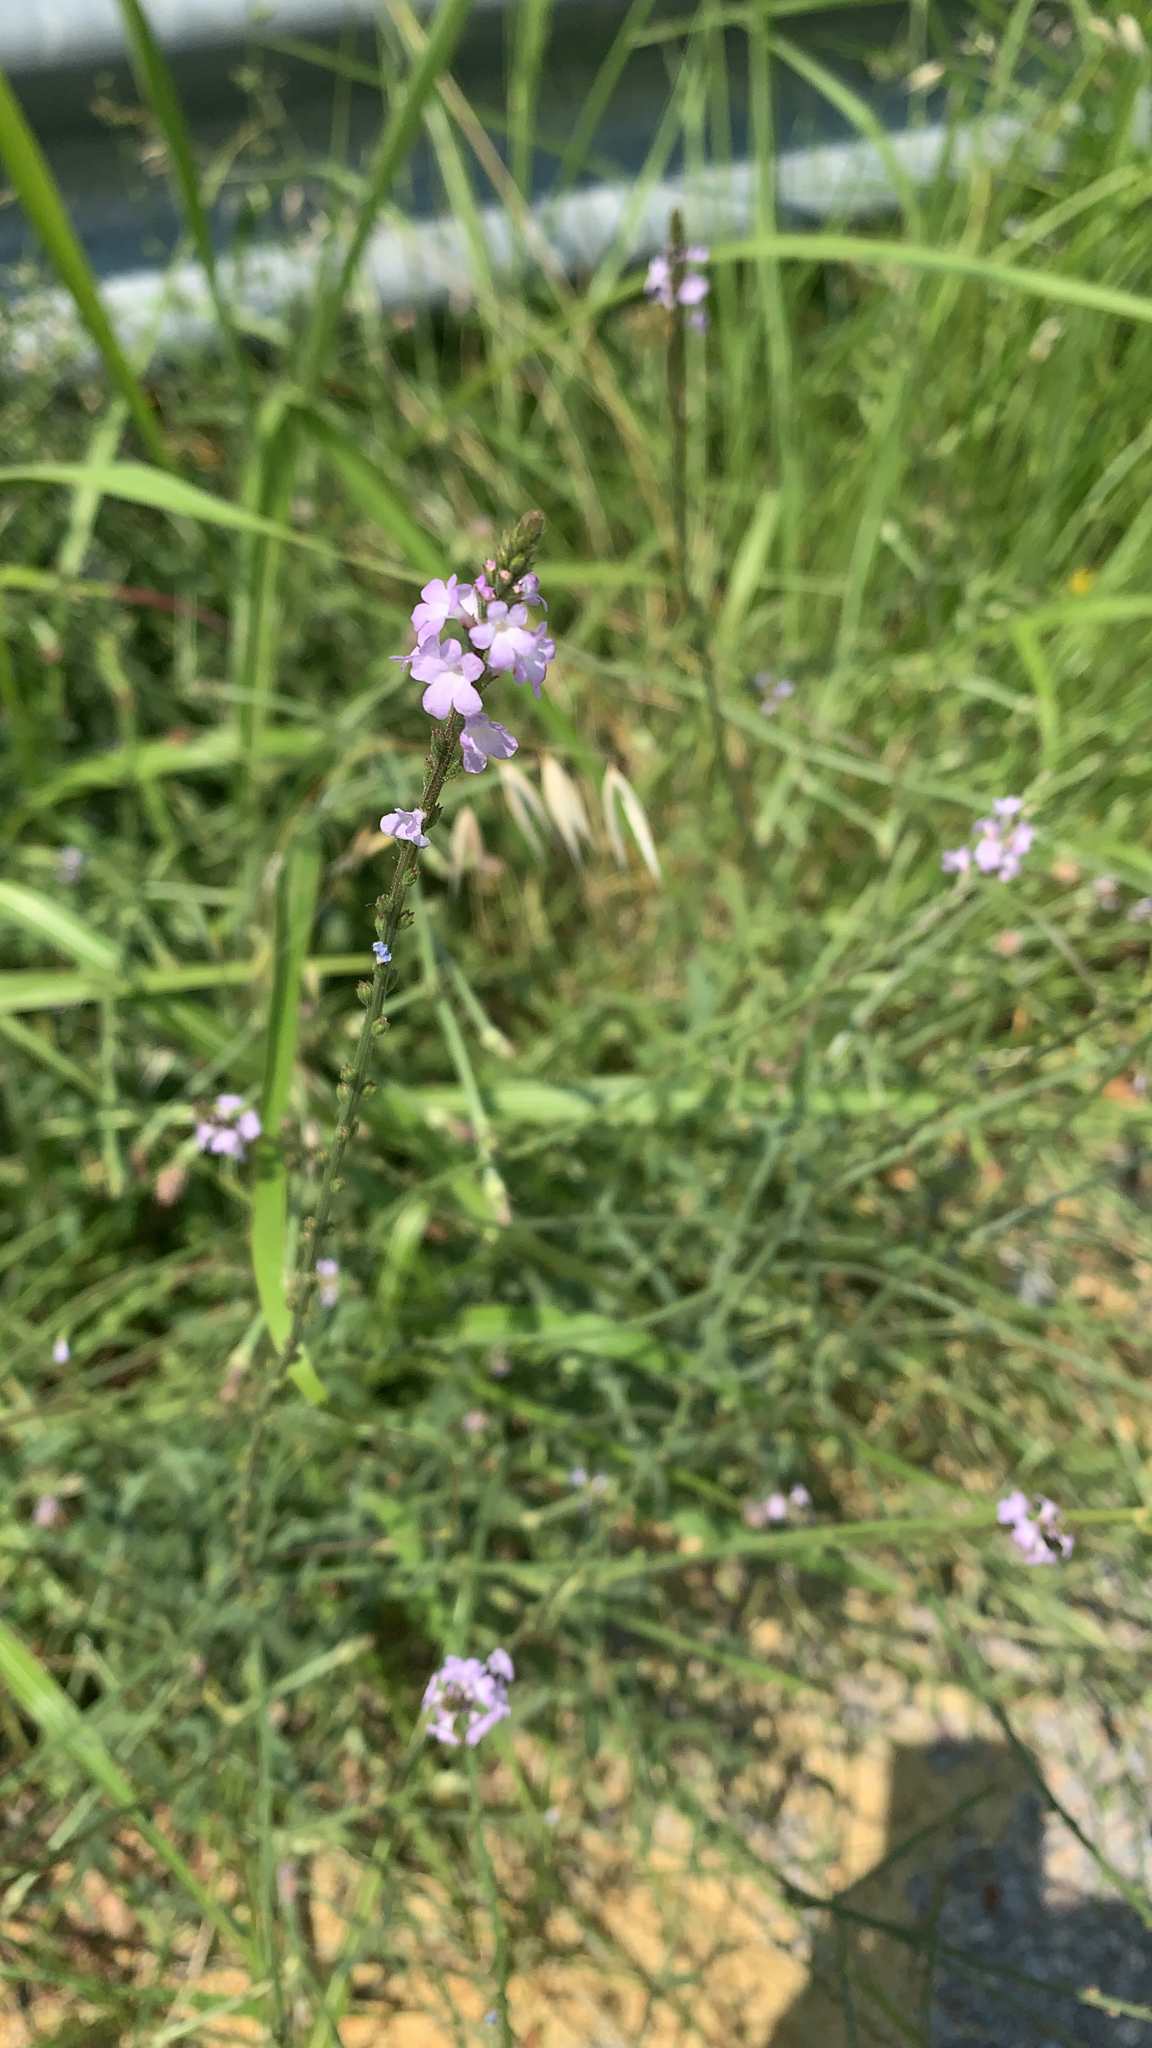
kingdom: Plantae
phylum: Tracheophyta
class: Magnoliopsida
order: Lamiales
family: Verbenaceae
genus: Verbena
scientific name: Verbena officinalis
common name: Vervain
